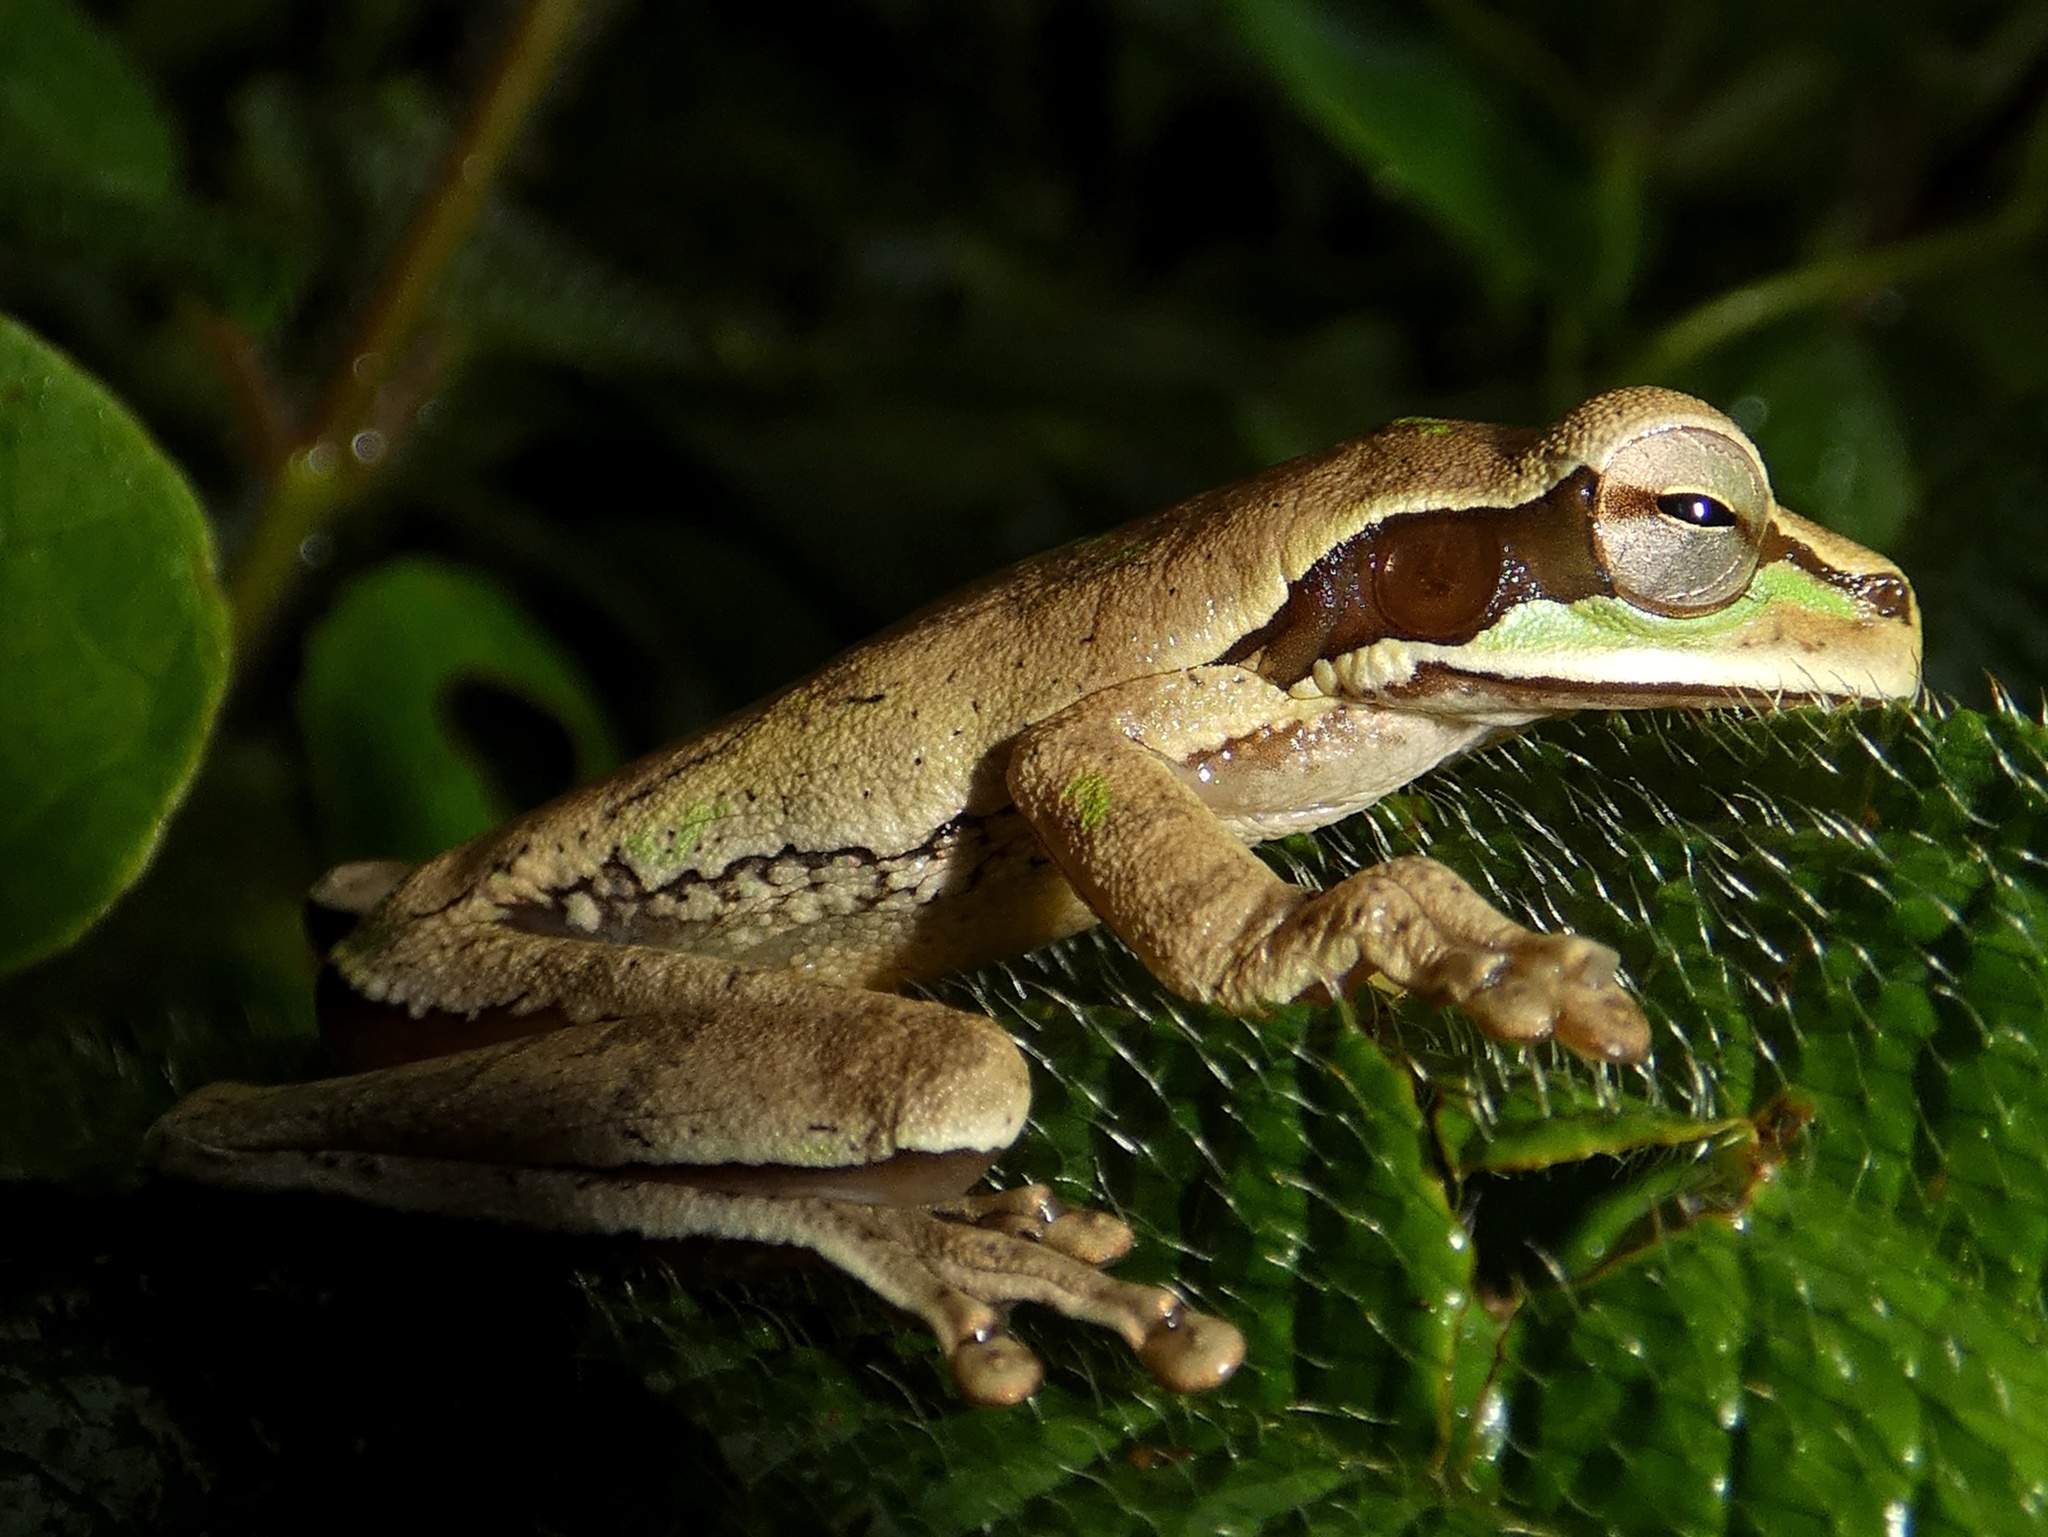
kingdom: Animalia
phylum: Chordata
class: Amphibia
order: Anura
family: Hylidae
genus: Smilisca
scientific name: Smilisca phaeota
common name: Central american smilisca
